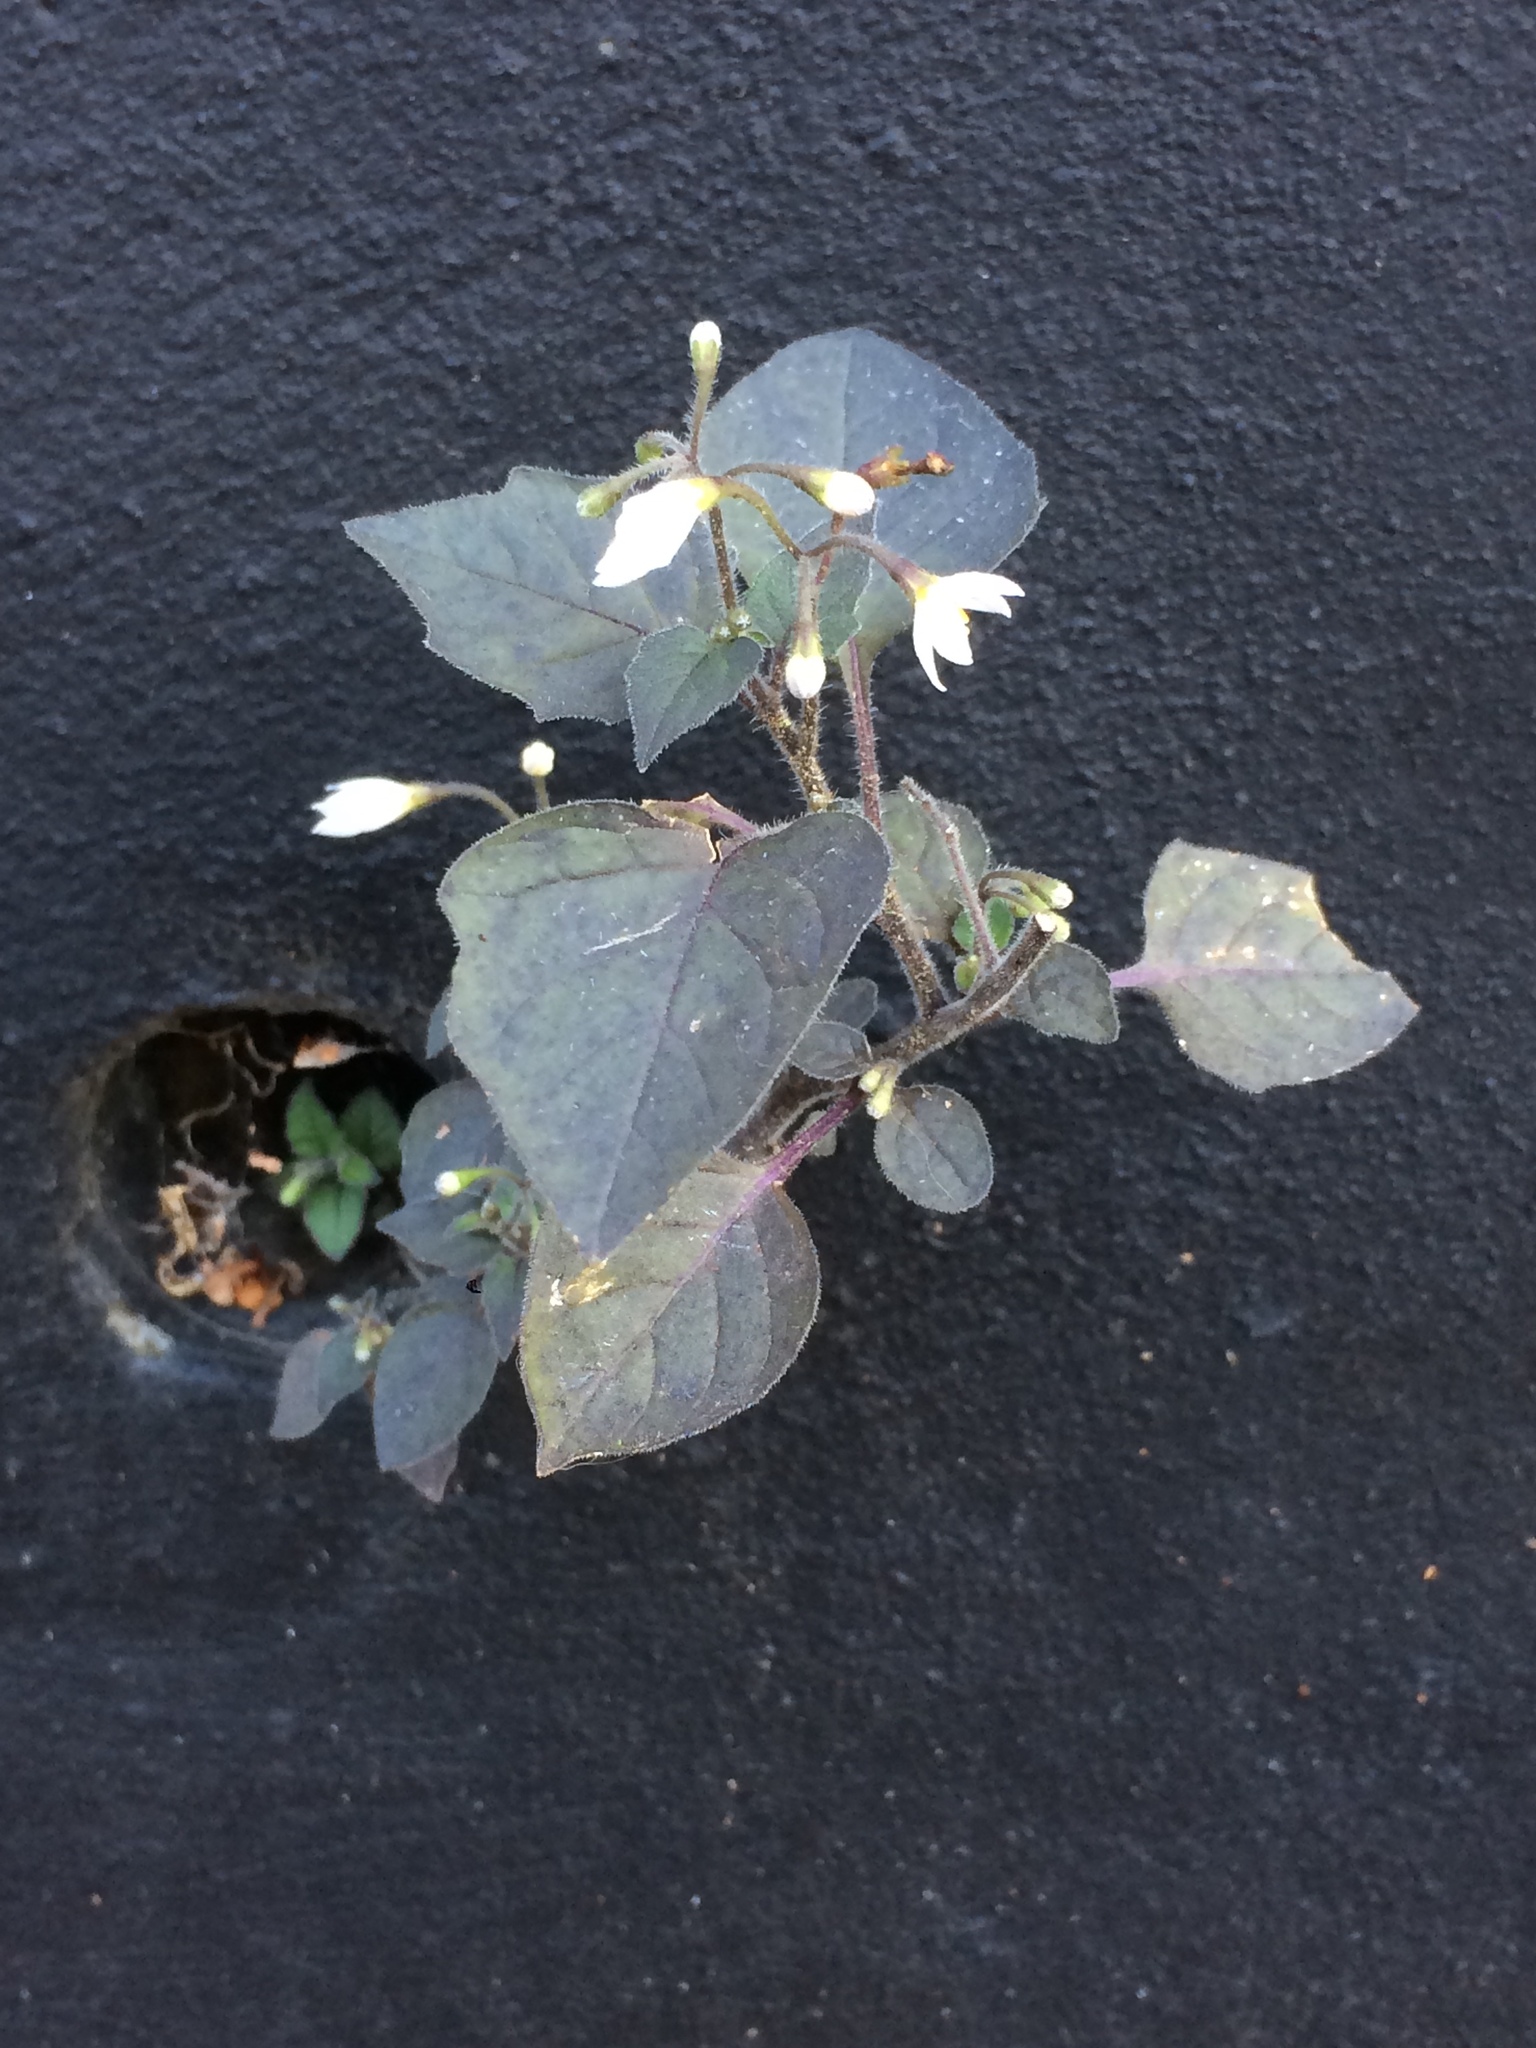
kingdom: Plantae
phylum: Tracheophyta
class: Magnoliopsida
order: Solanales
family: Solanaceae
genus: Solanum
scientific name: Solanum nigrum
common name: Black nightshade
